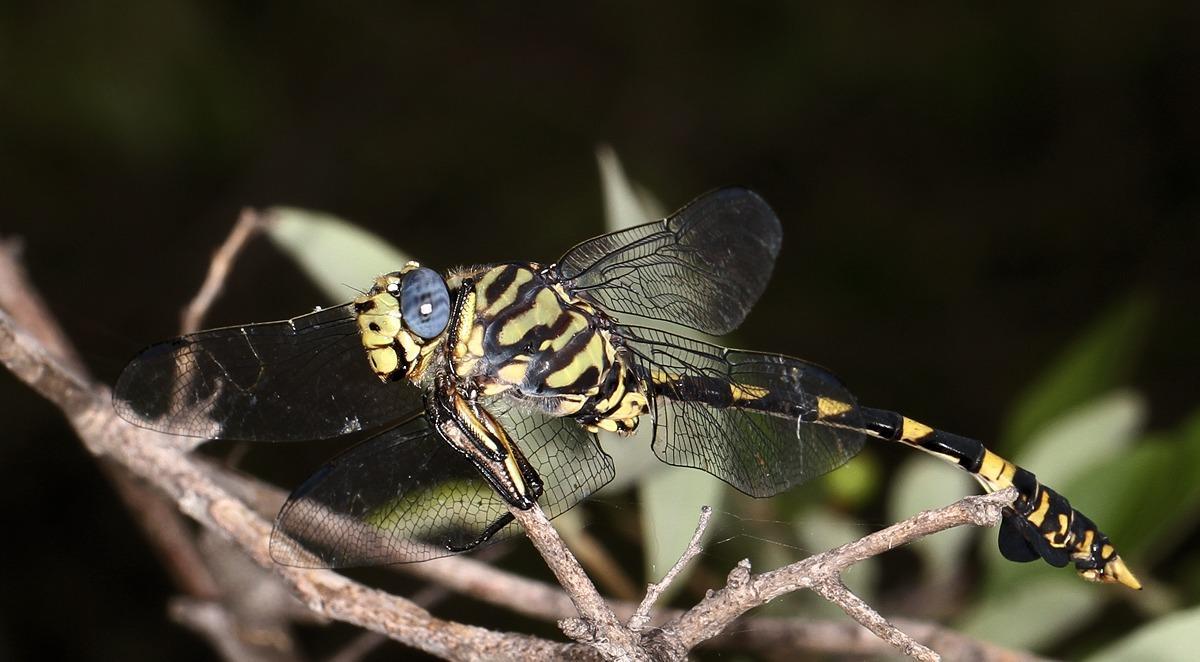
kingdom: Animalia
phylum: Arthropoda
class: Insecta
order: Odonata
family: Gomphidae
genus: Ictinogomphus
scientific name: Ictinogomphus ferox
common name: Common tiger
